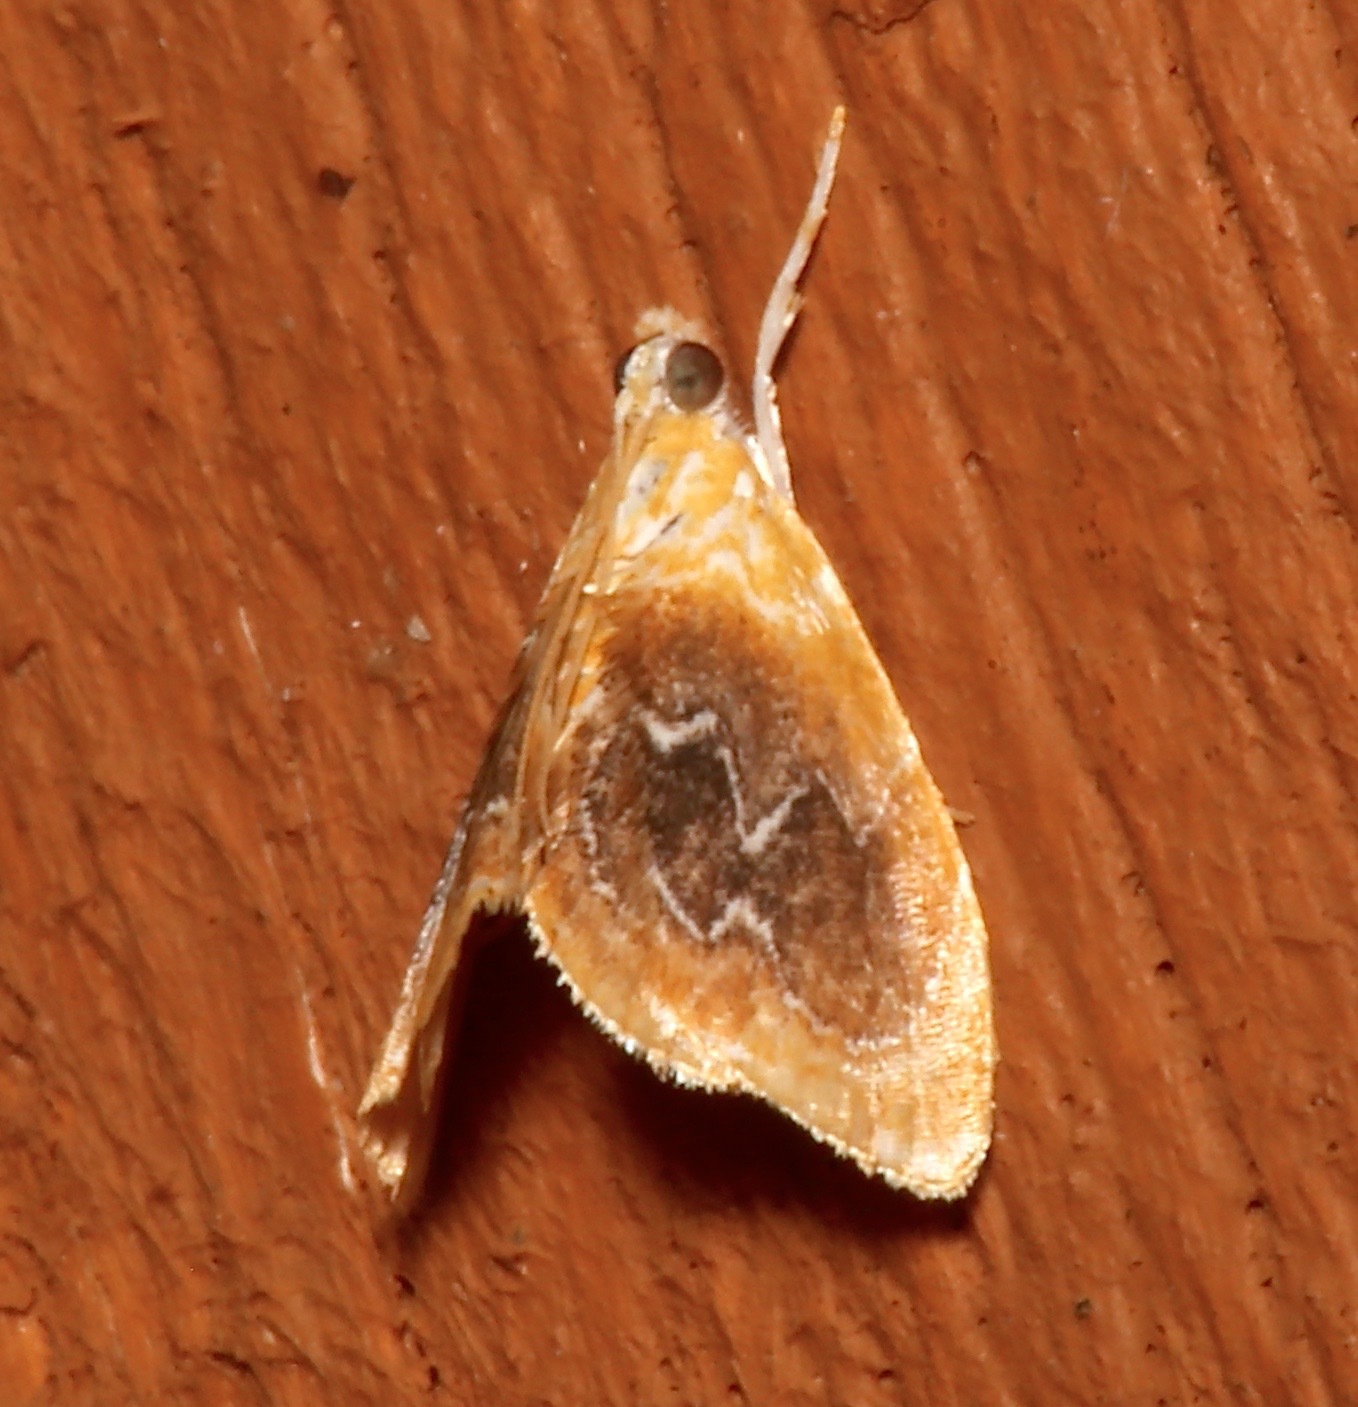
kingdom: Animalia
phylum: Arthropoda
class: Insecta
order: Lepidoptera
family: Crambidae
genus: Glaphyria
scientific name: Glaphyria fulminalis
